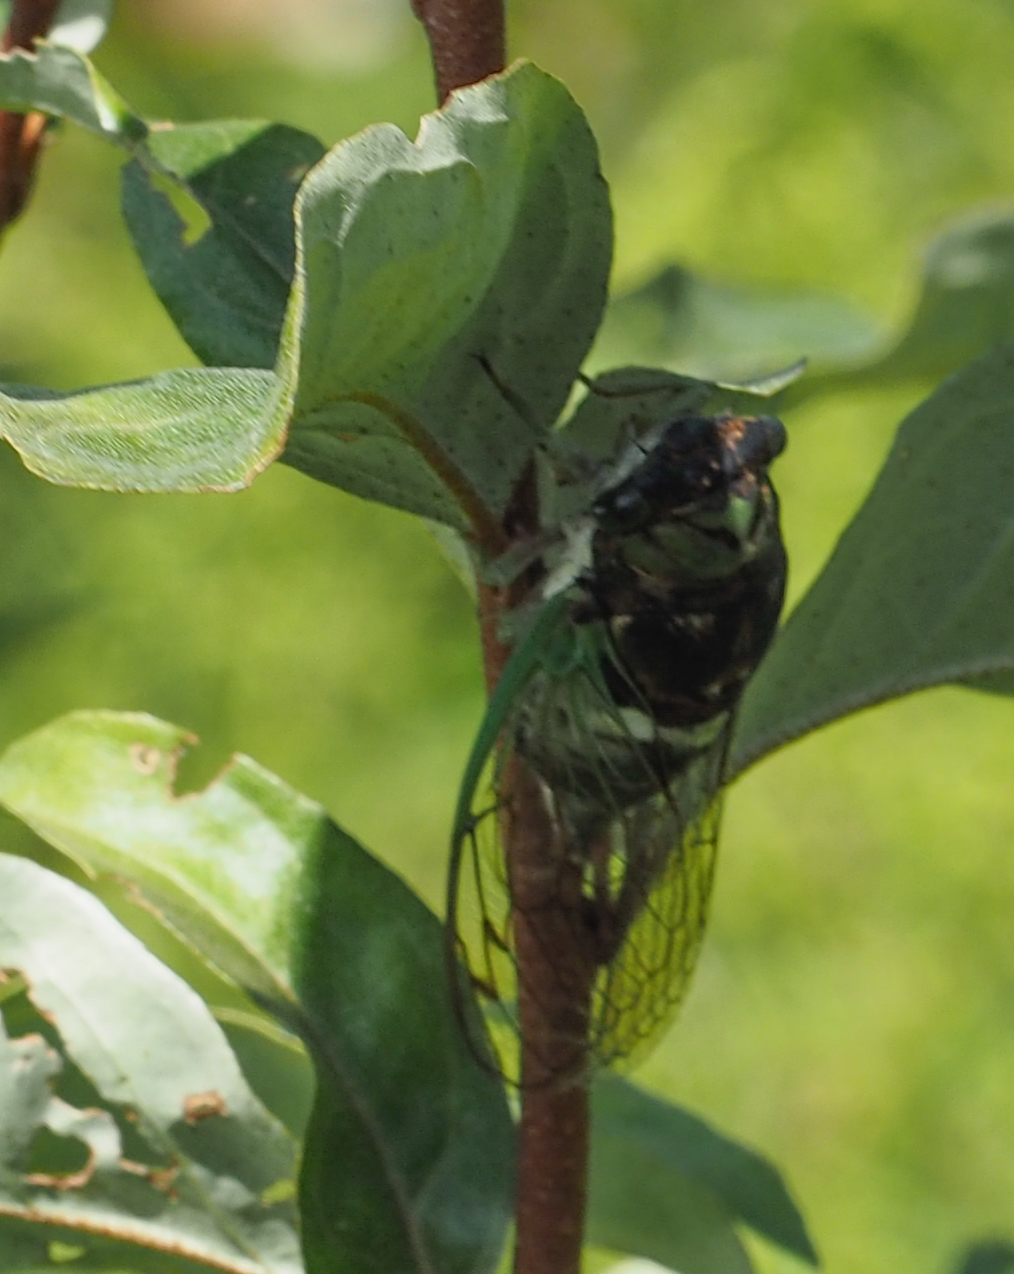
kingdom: Animalia
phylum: Arthropoda
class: Insecta
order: Hemiptera
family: Cicadidae
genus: Neotibicen
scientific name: Neotibicen tibicen
